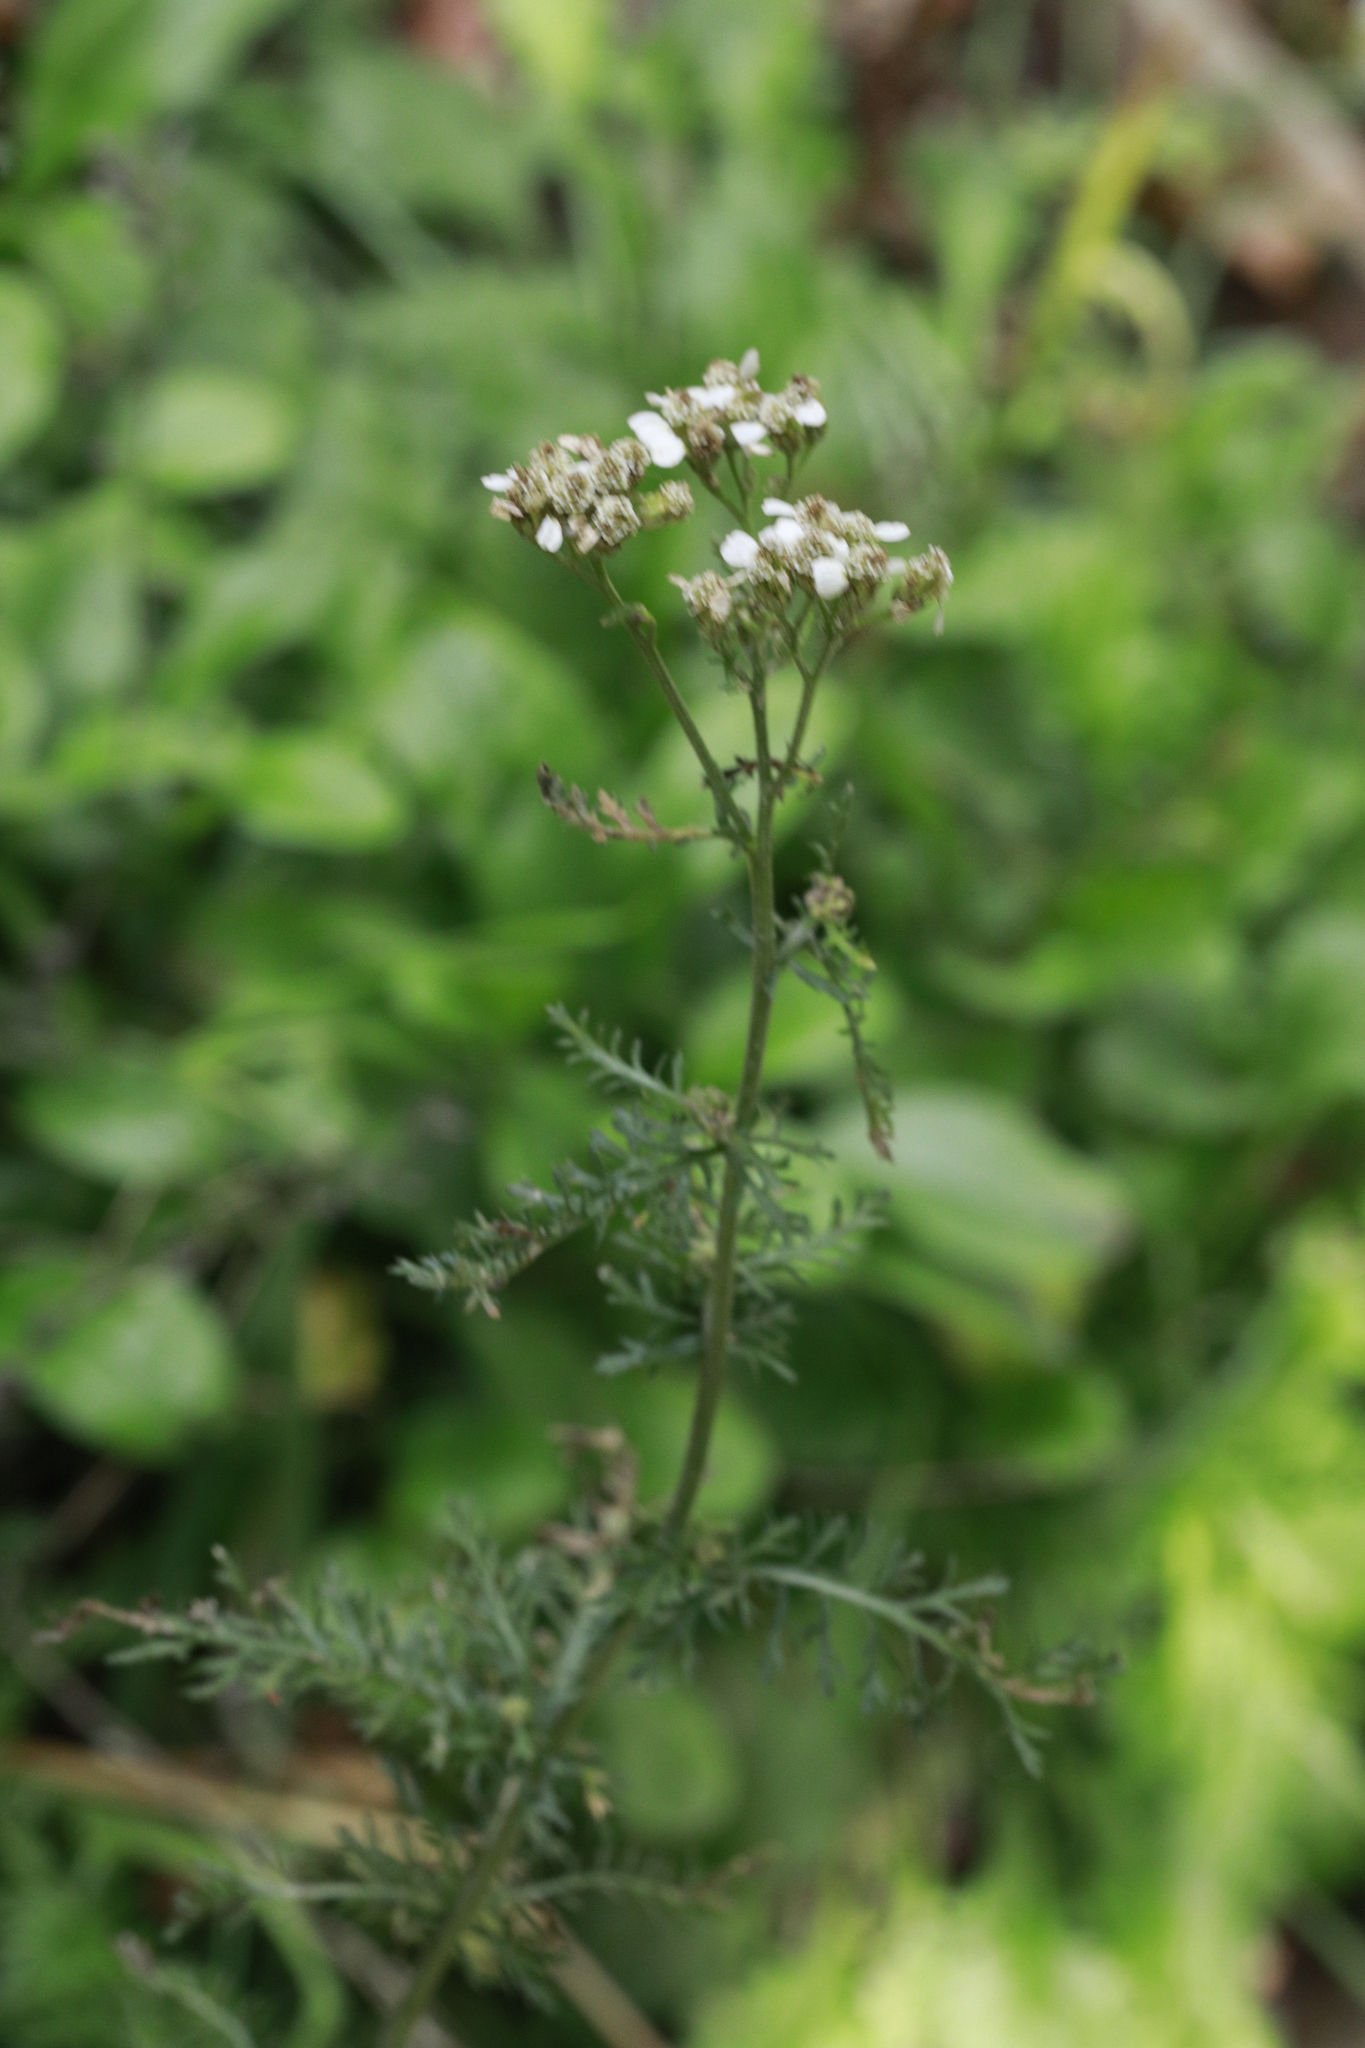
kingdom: Plantae
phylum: Tracheophyta
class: Magnoliopsida
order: Asterales
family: Asteraceae
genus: Achillea
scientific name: Achillea millefolium
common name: Yarrow
